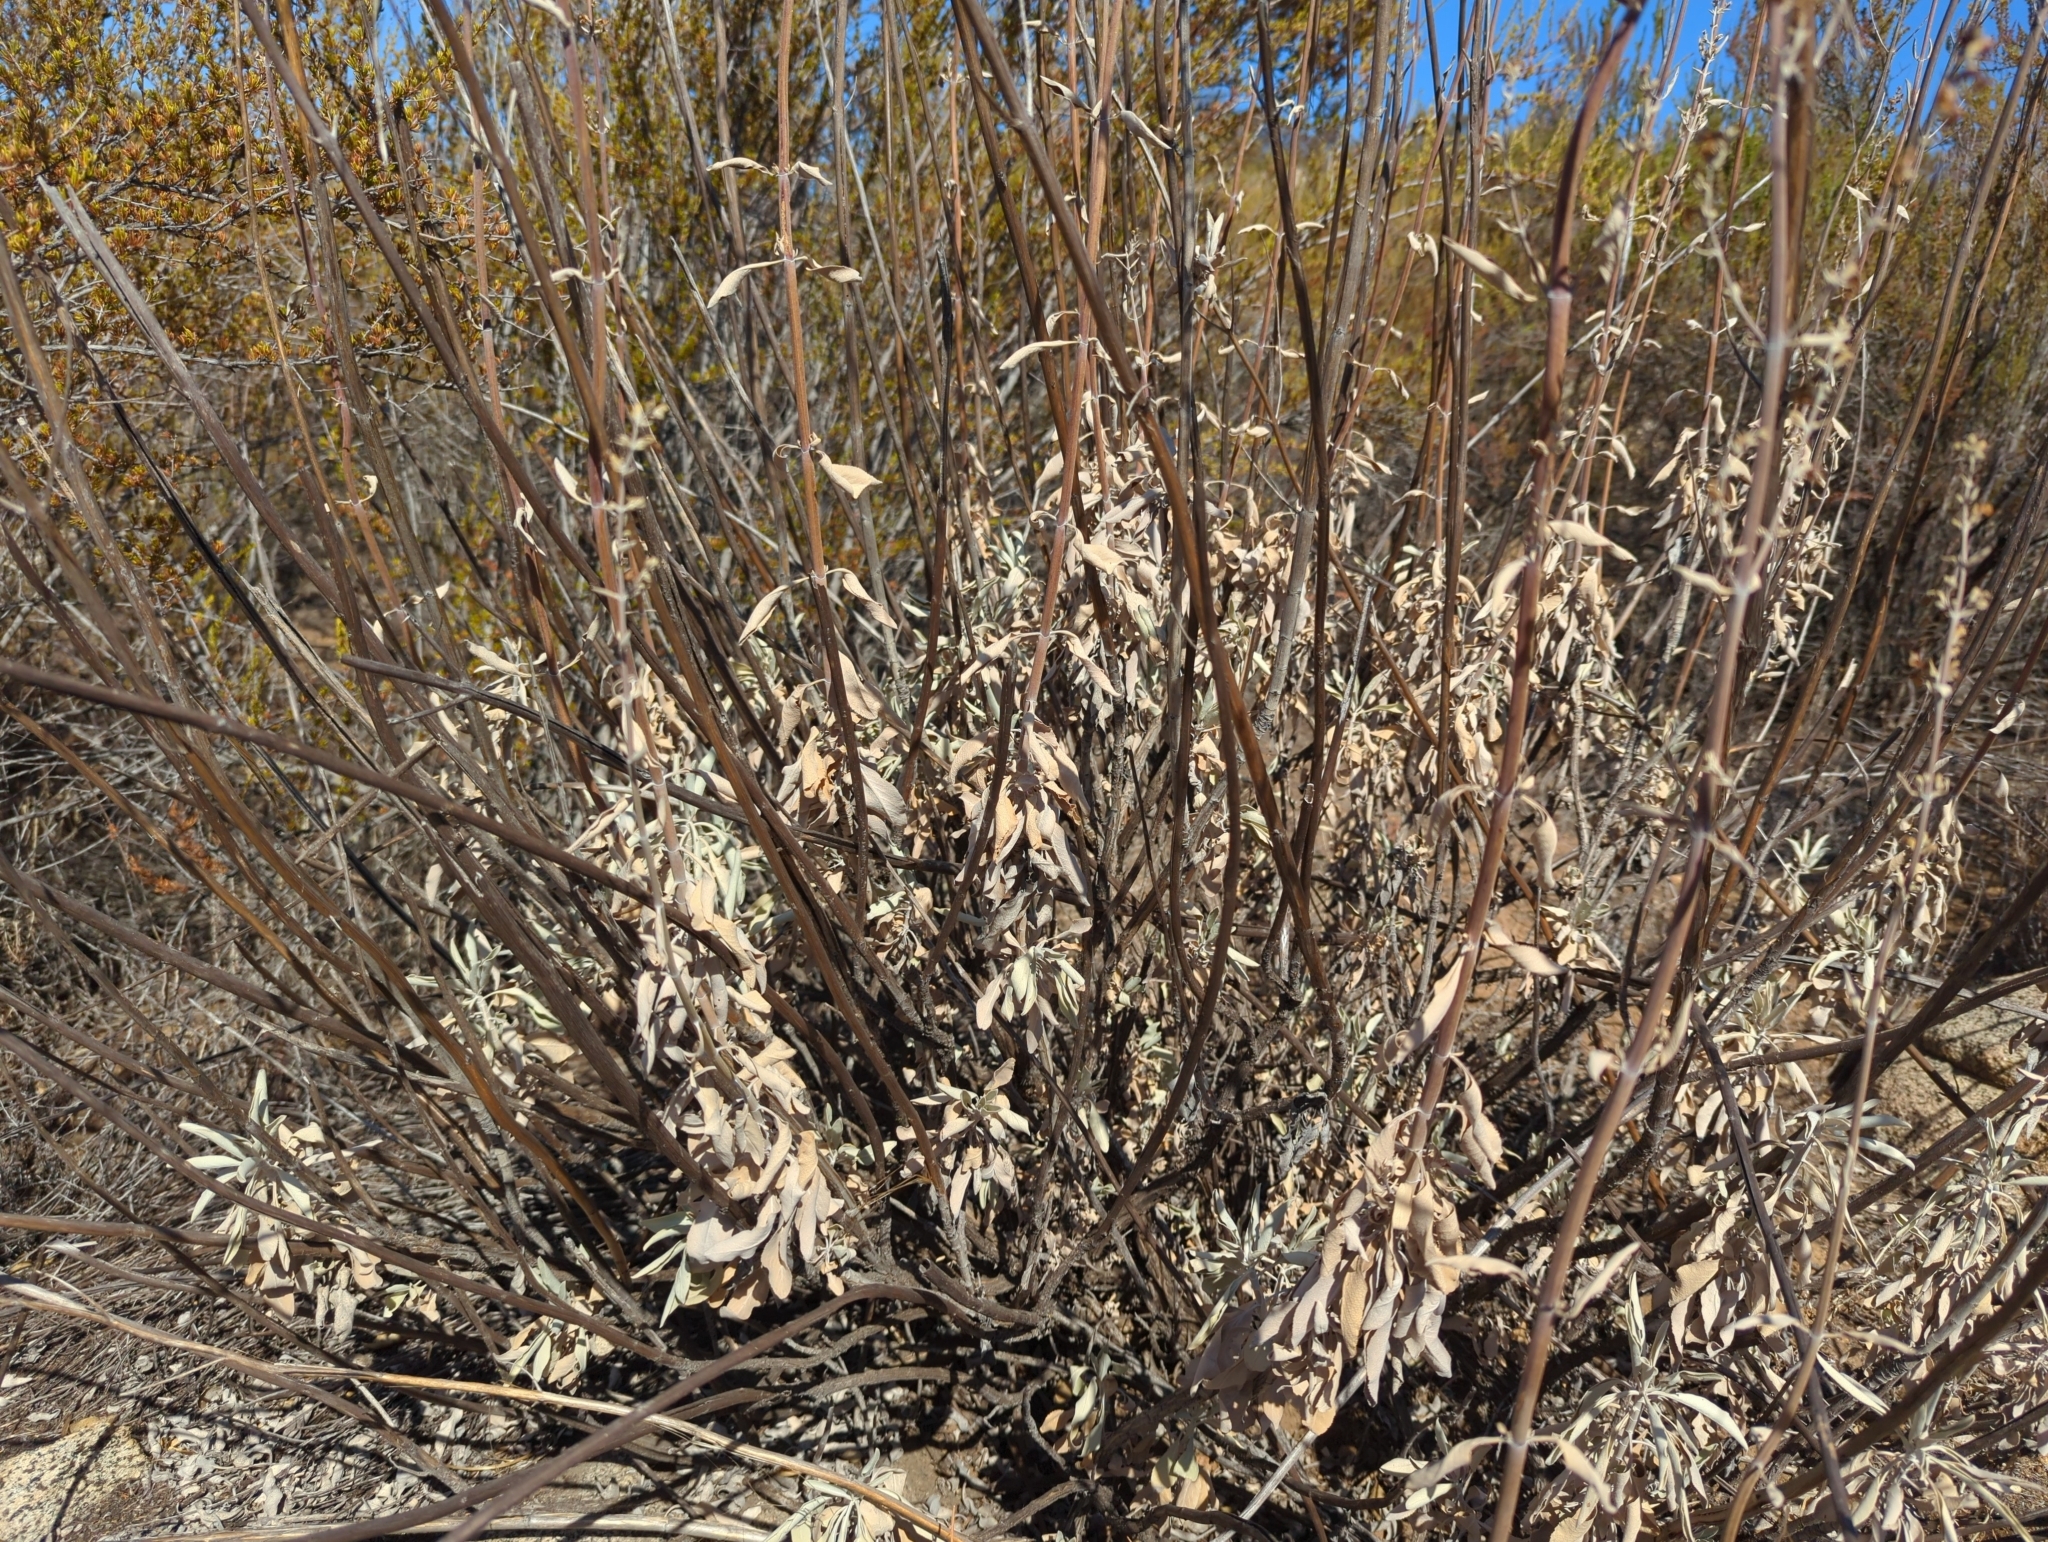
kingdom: Plantae
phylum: Tracheophyta
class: Magnoliopsida
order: Lamiales
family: Lamiaceae
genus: Salvia
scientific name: Salvia apiana
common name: White sage
